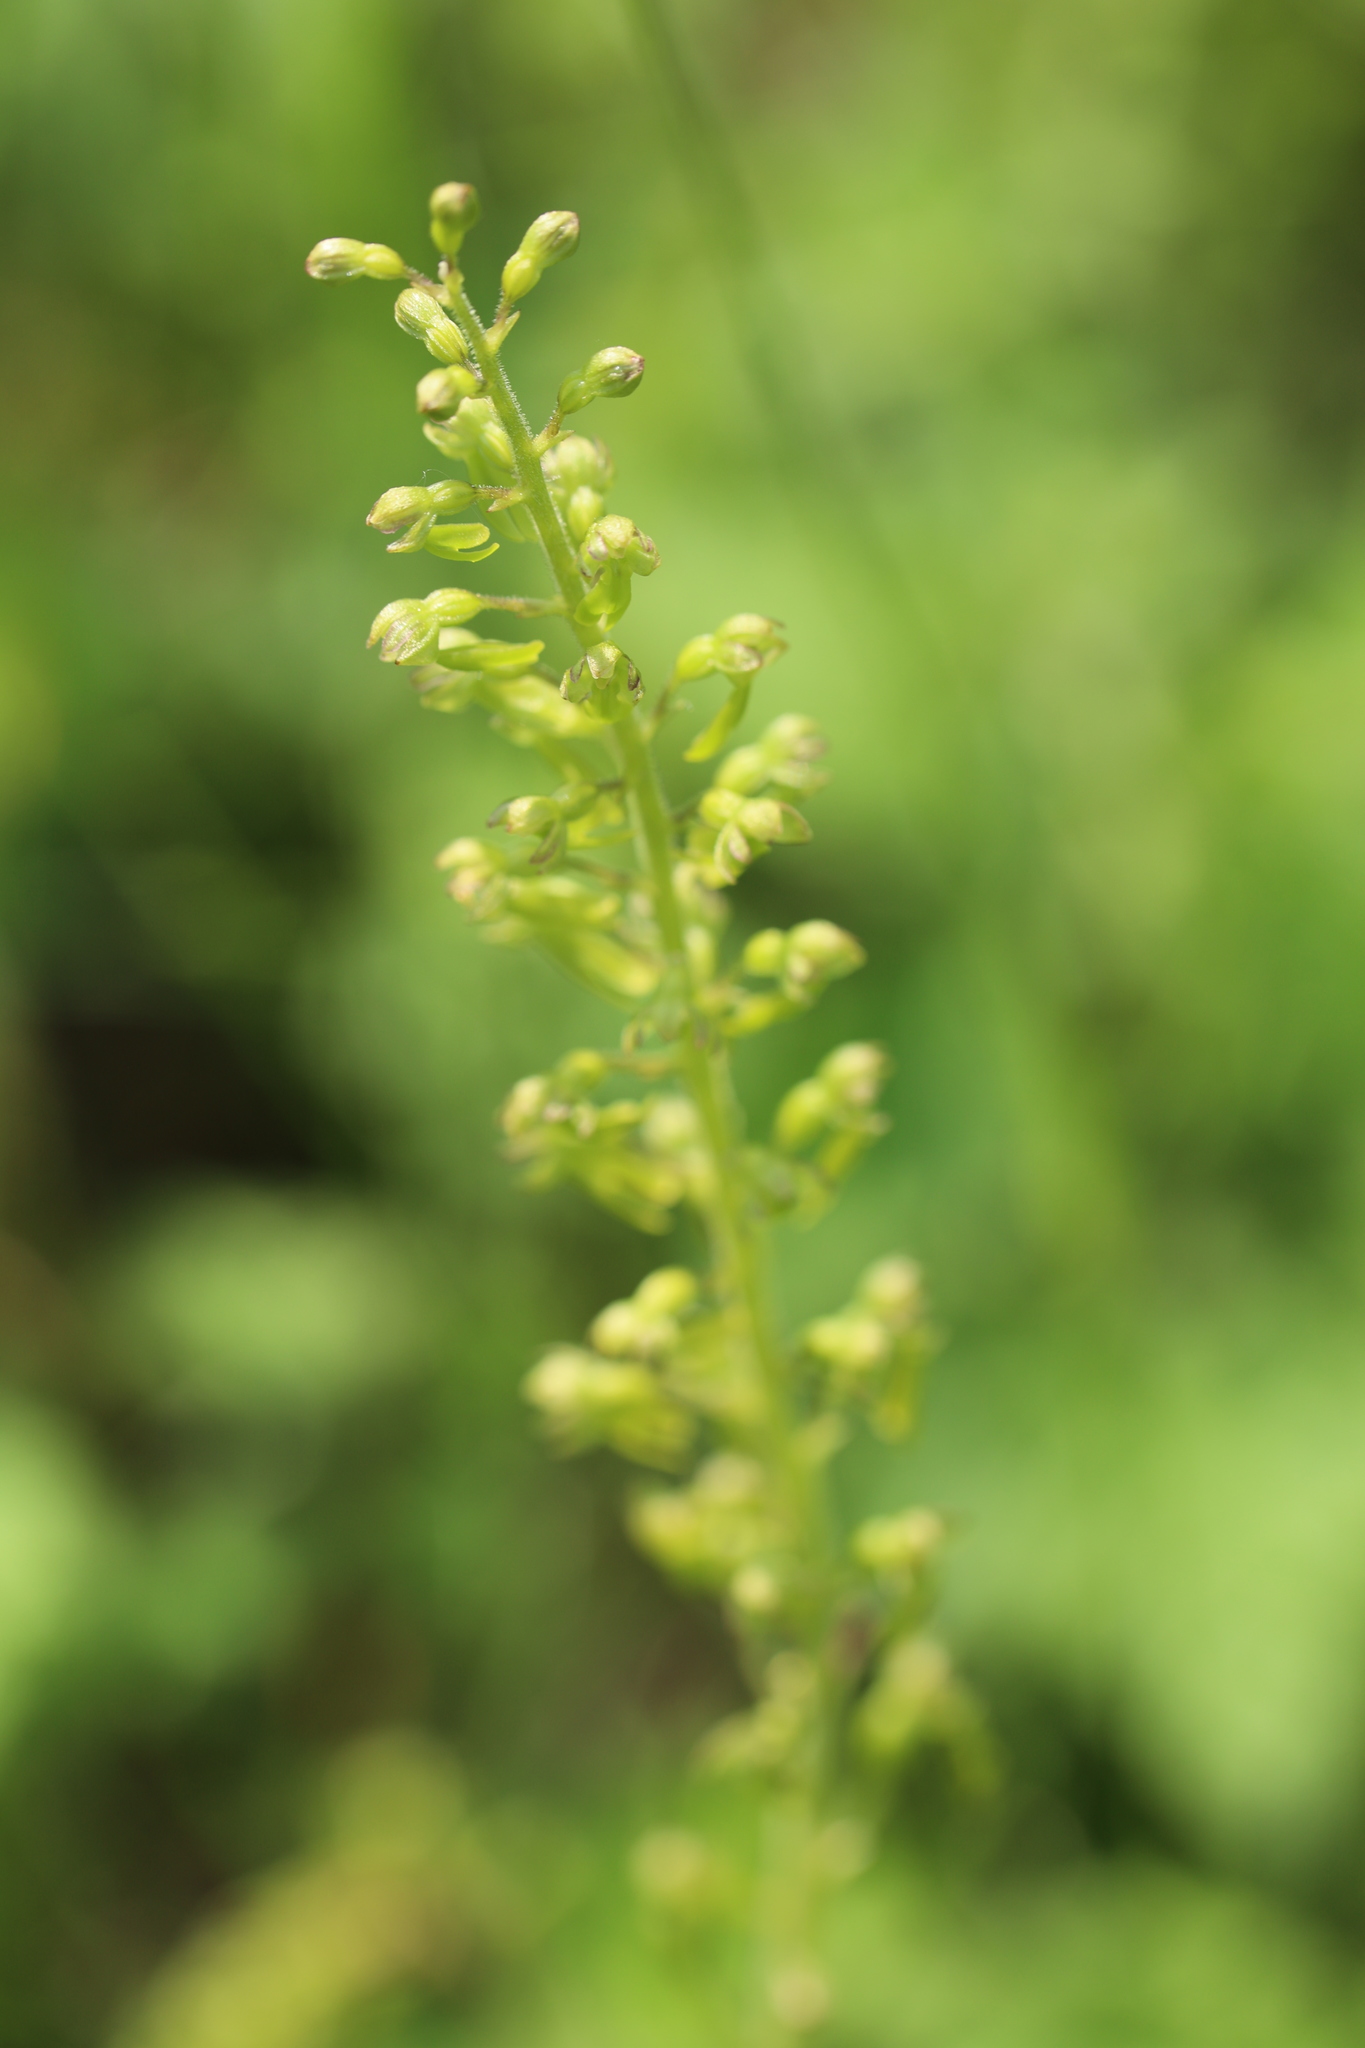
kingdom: Plantae
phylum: Tracheophyta
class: Liliopsida
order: Asparagales
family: Orchidaceae
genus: Neottia
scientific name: Neottia ovata
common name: Common twayblade
